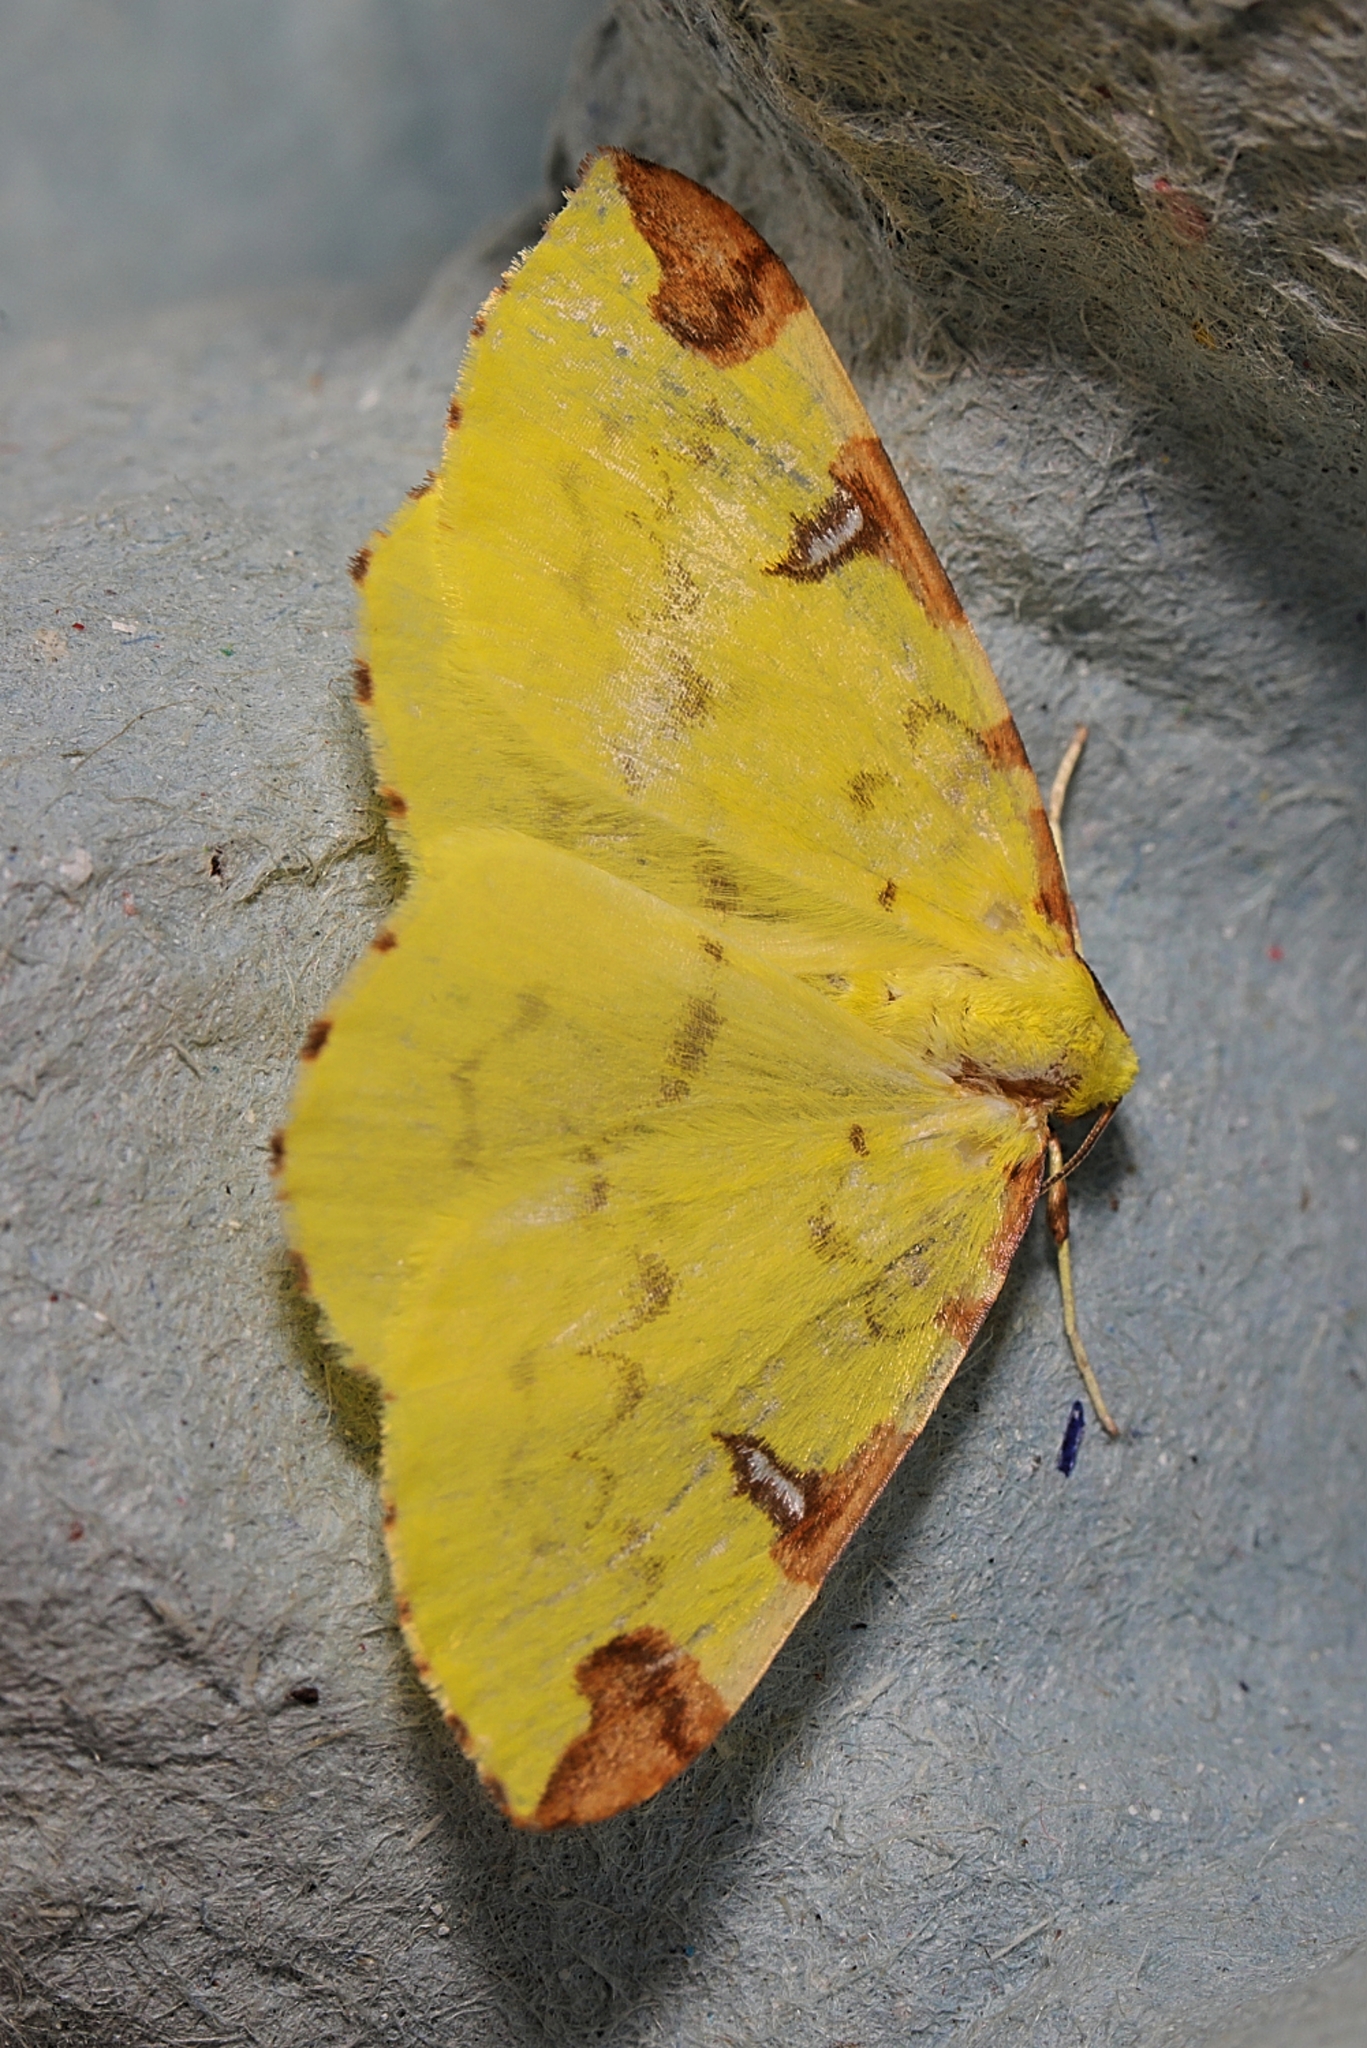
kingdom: Animalia
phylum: Arthropoda
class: Insecta
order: Lepidoptera
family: Geometridae
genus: Opisthograptis
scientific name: Opisthograptis luteolata
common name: Brimstone moth
